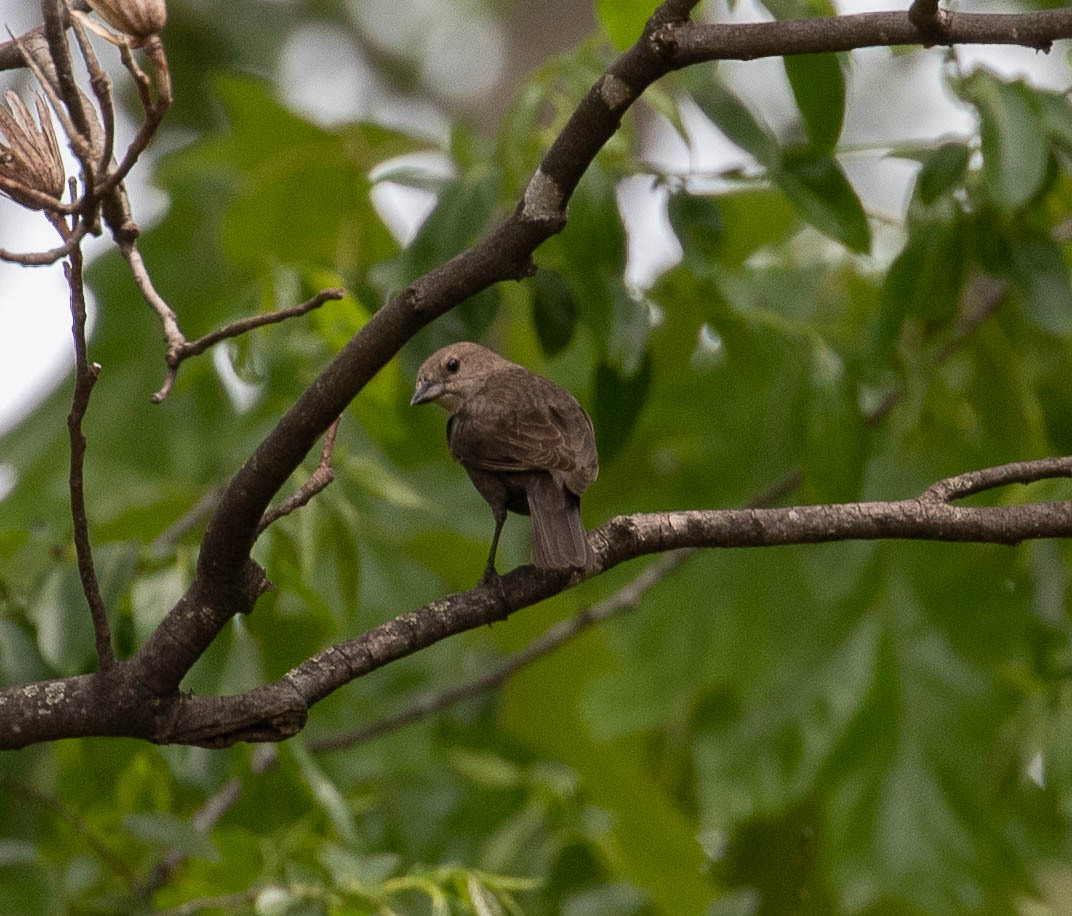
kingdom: Animalia
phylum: Chordata
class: Aves
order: Passeriformes
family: Icteridae
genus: Molothrus
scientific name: Molothrus ater
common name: Brown-headed cowbird
